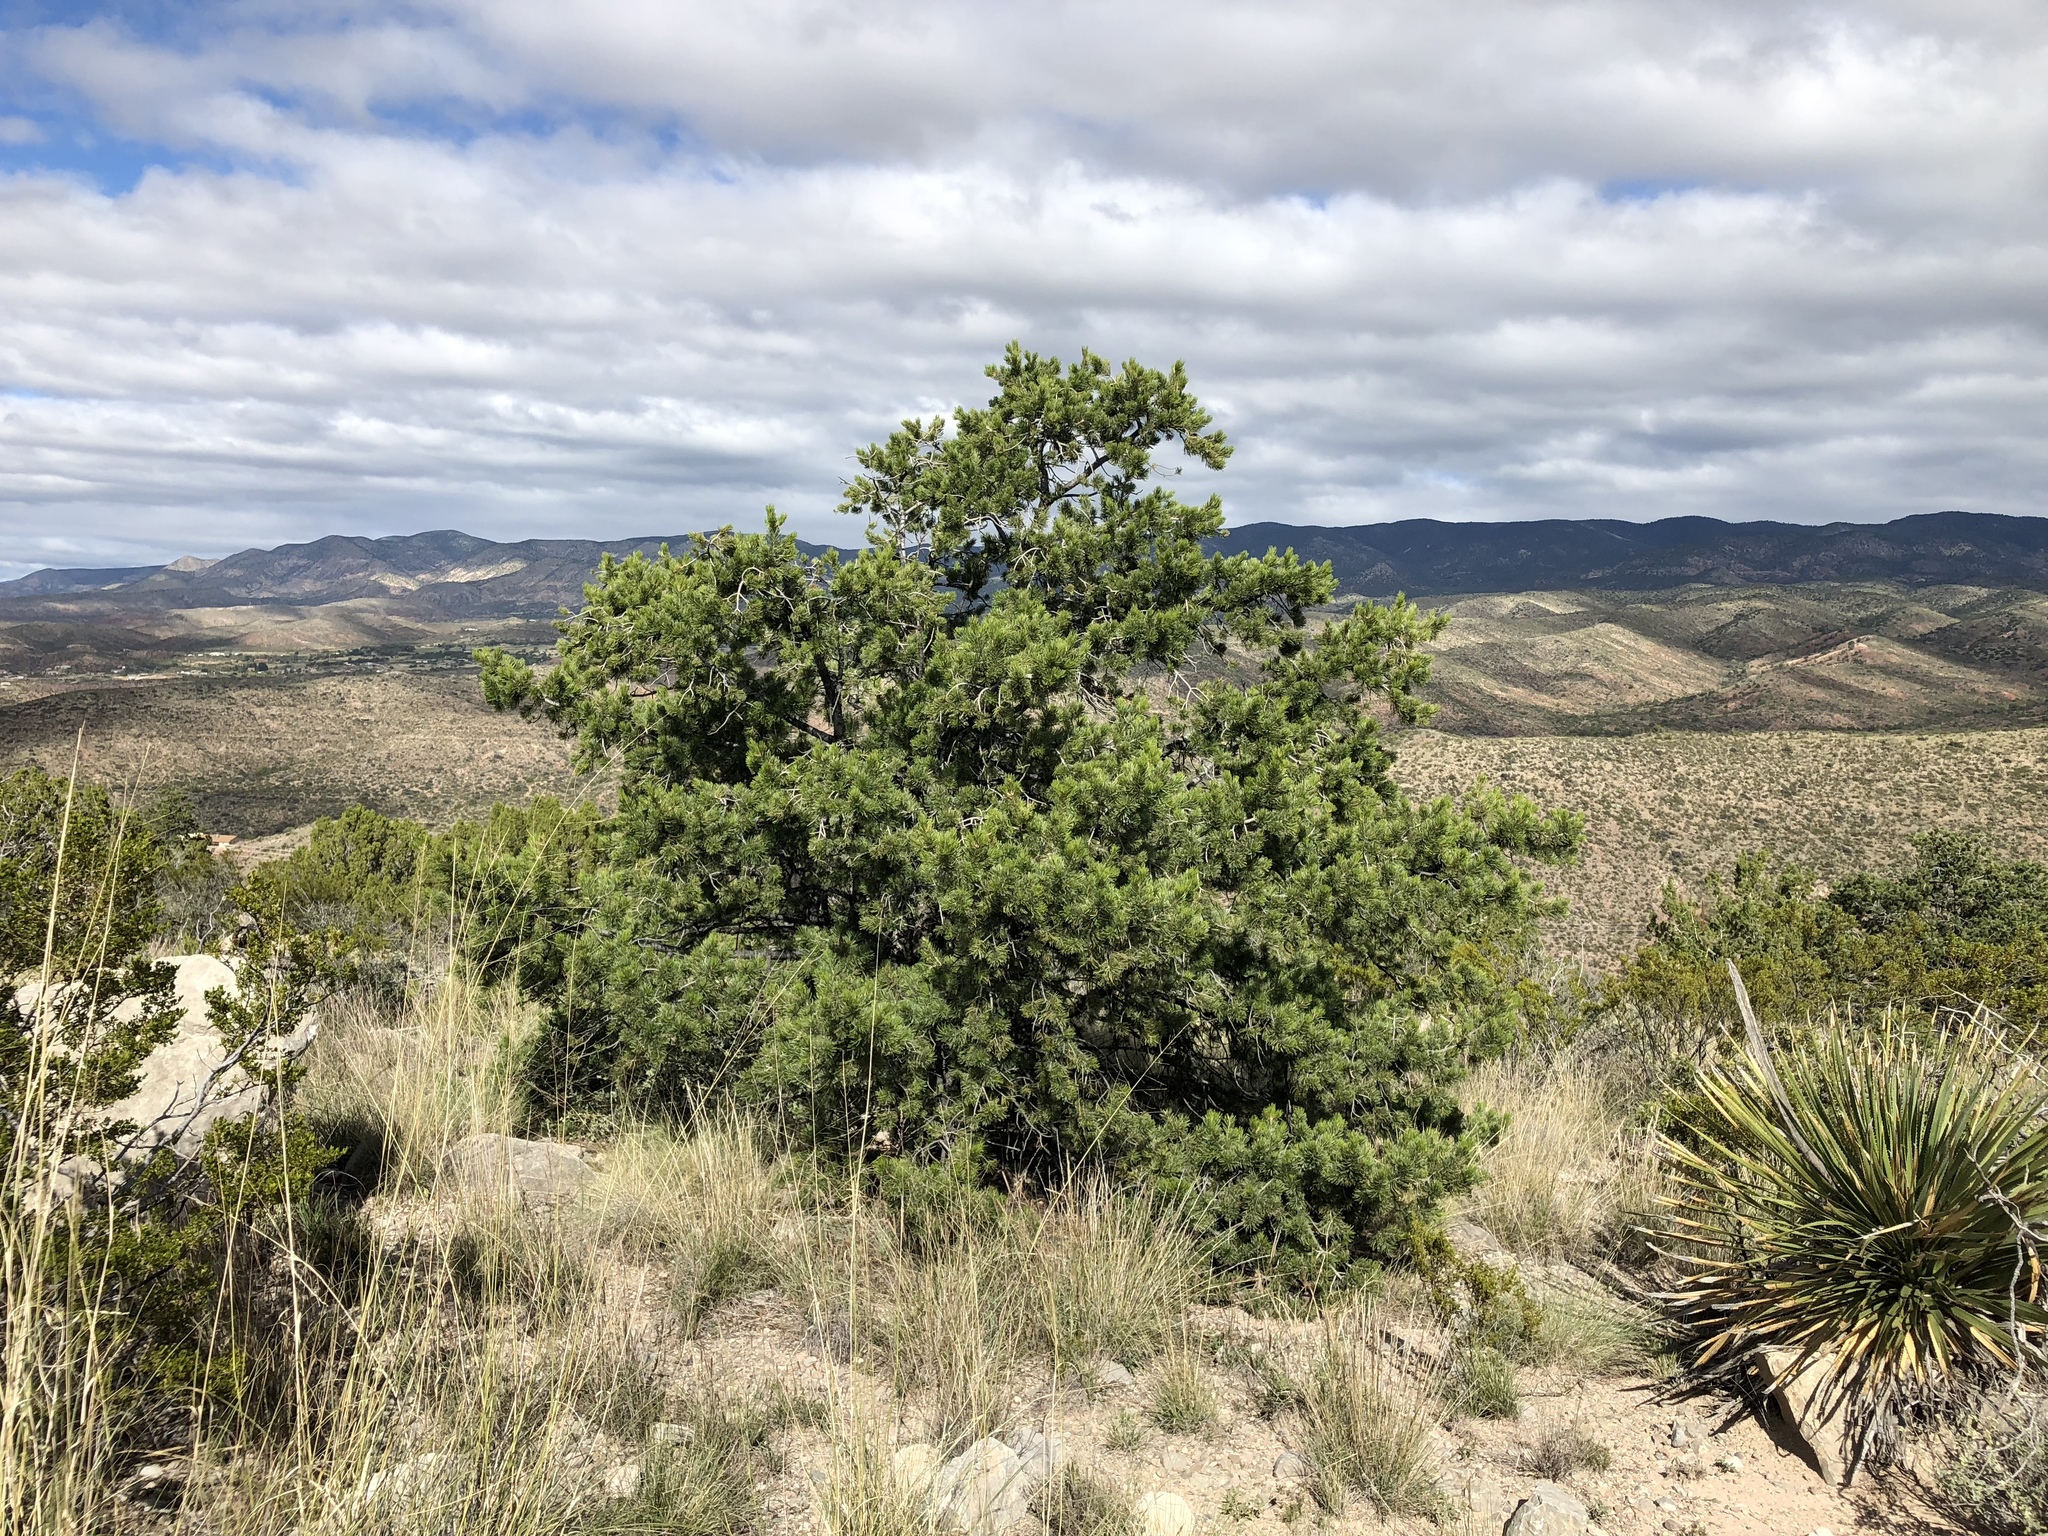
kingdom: Plantae
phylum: Tracheophyta
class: Pinopsida
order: Pinales
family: Pinaceae
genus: Pinus
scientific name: Pinus edulis
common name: Colorado pinyon
